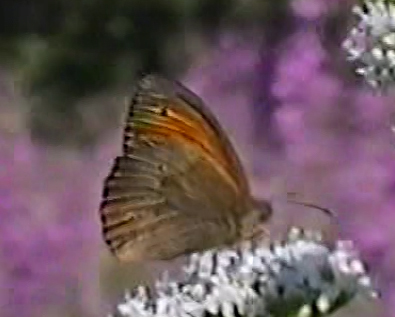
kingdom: Animalia
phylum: Arthropoda
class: Insecta
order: Lepidoptera
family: Nymphalidae
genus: Maniola
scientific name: Maniola jurtina
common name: Meadow brown
